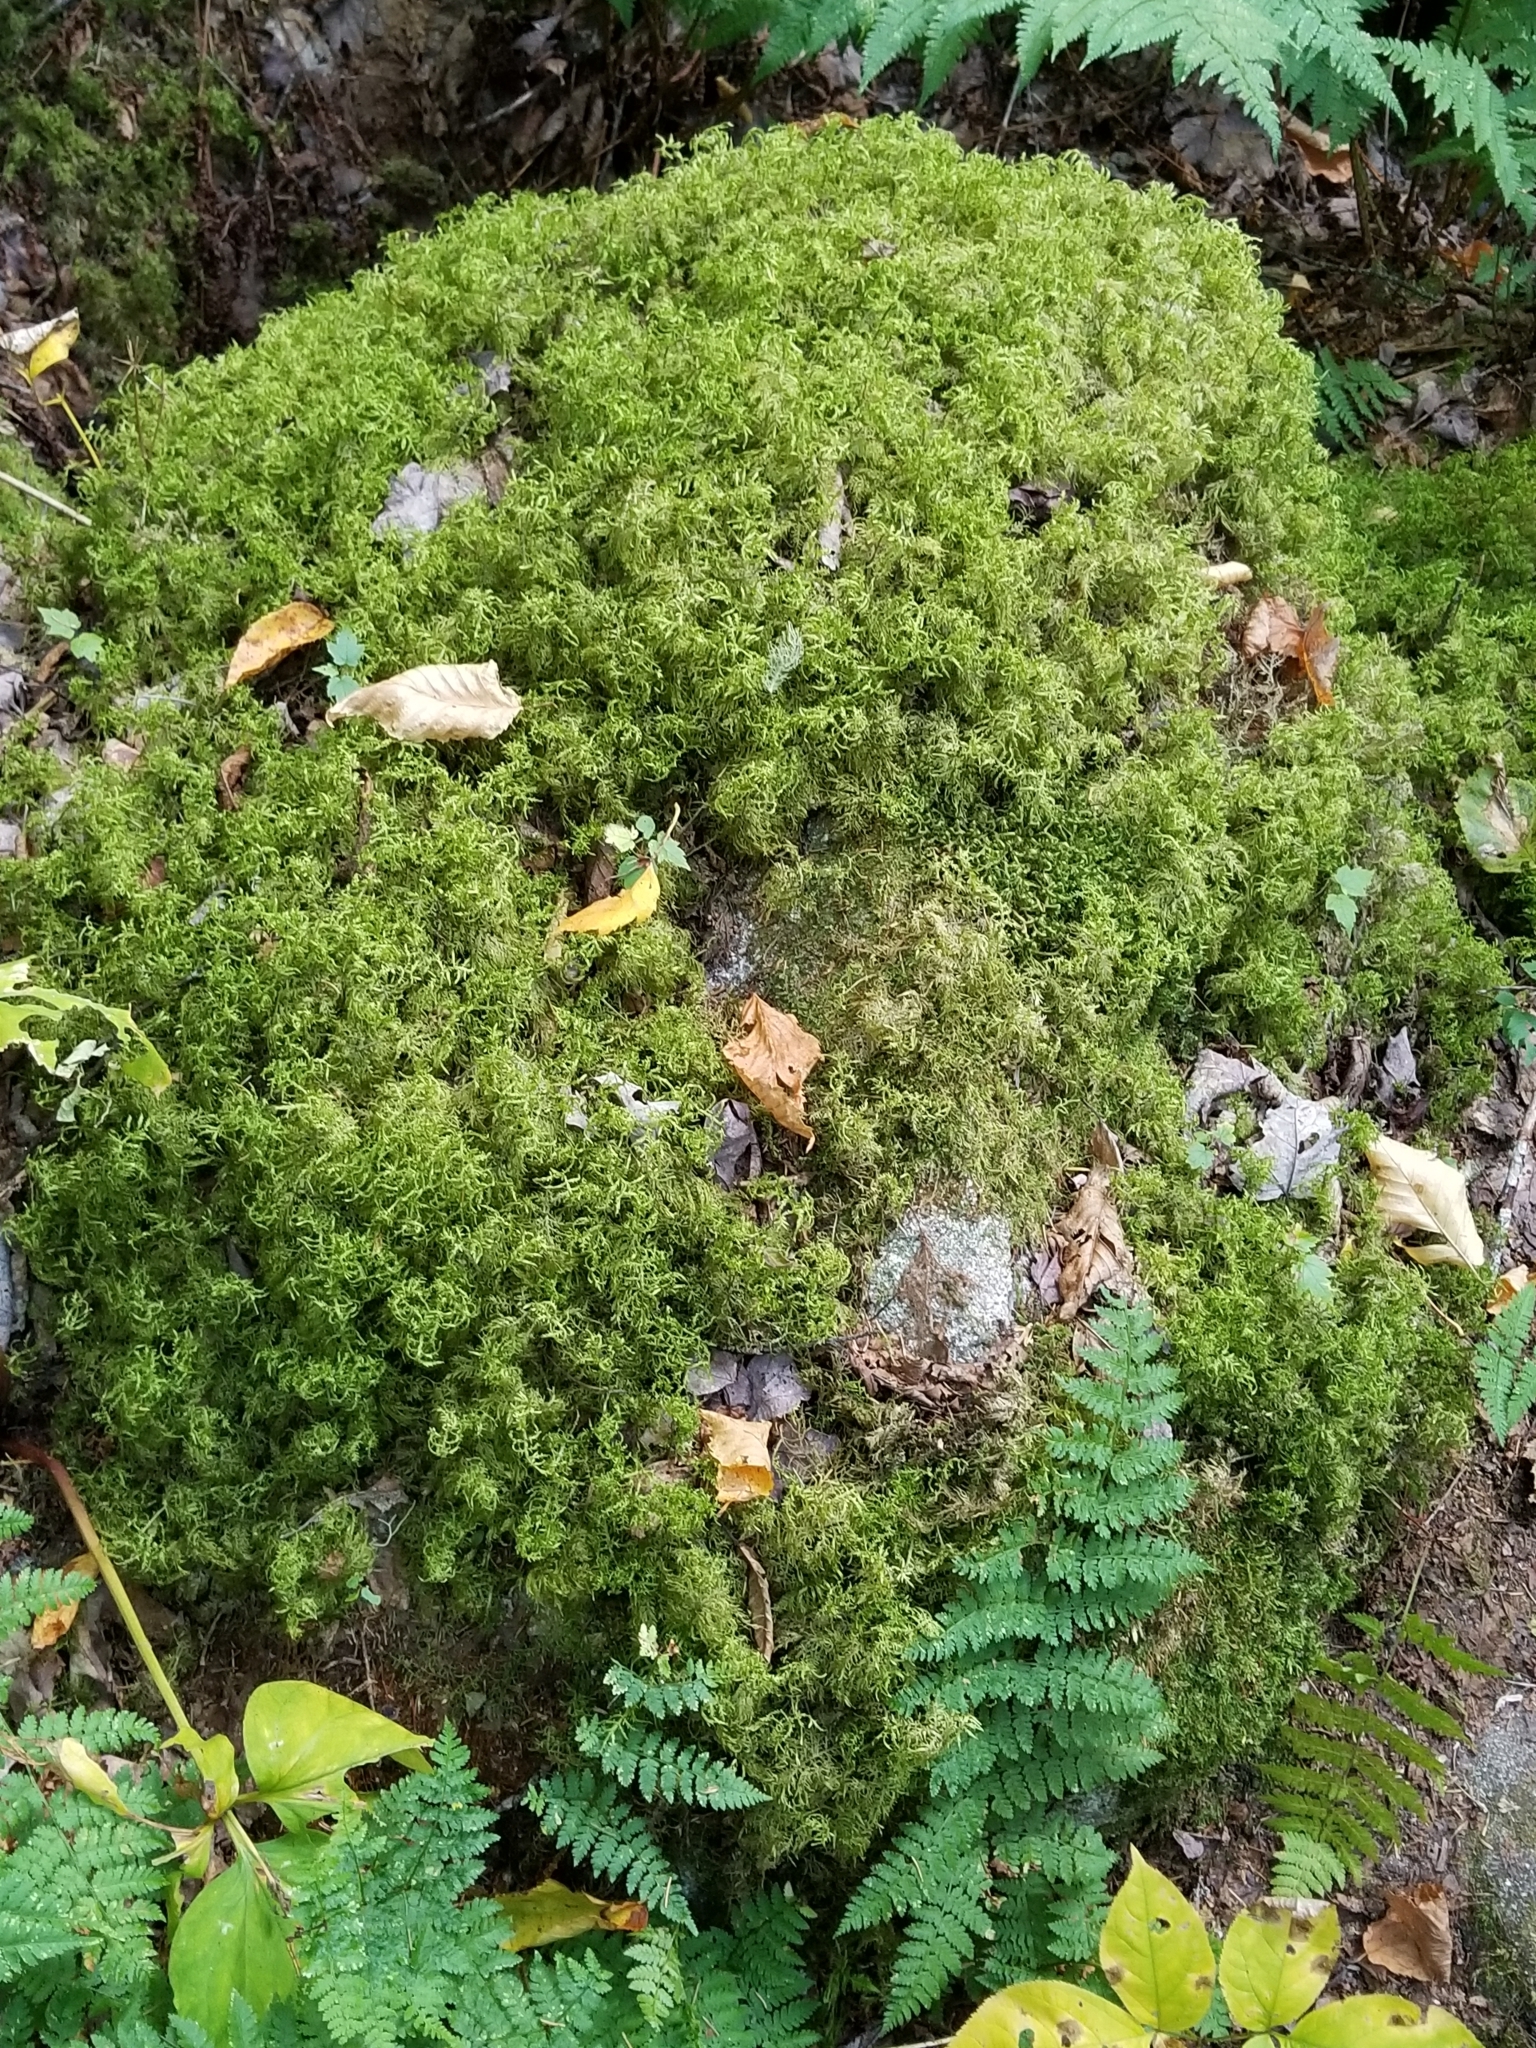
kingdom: Plantae
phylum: Bryophyta
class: Bryopsida
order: Hypnales
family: Hylocomiaceae
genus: Hylocomium
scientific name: Hylocomium splendens
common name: Stairstep moss
